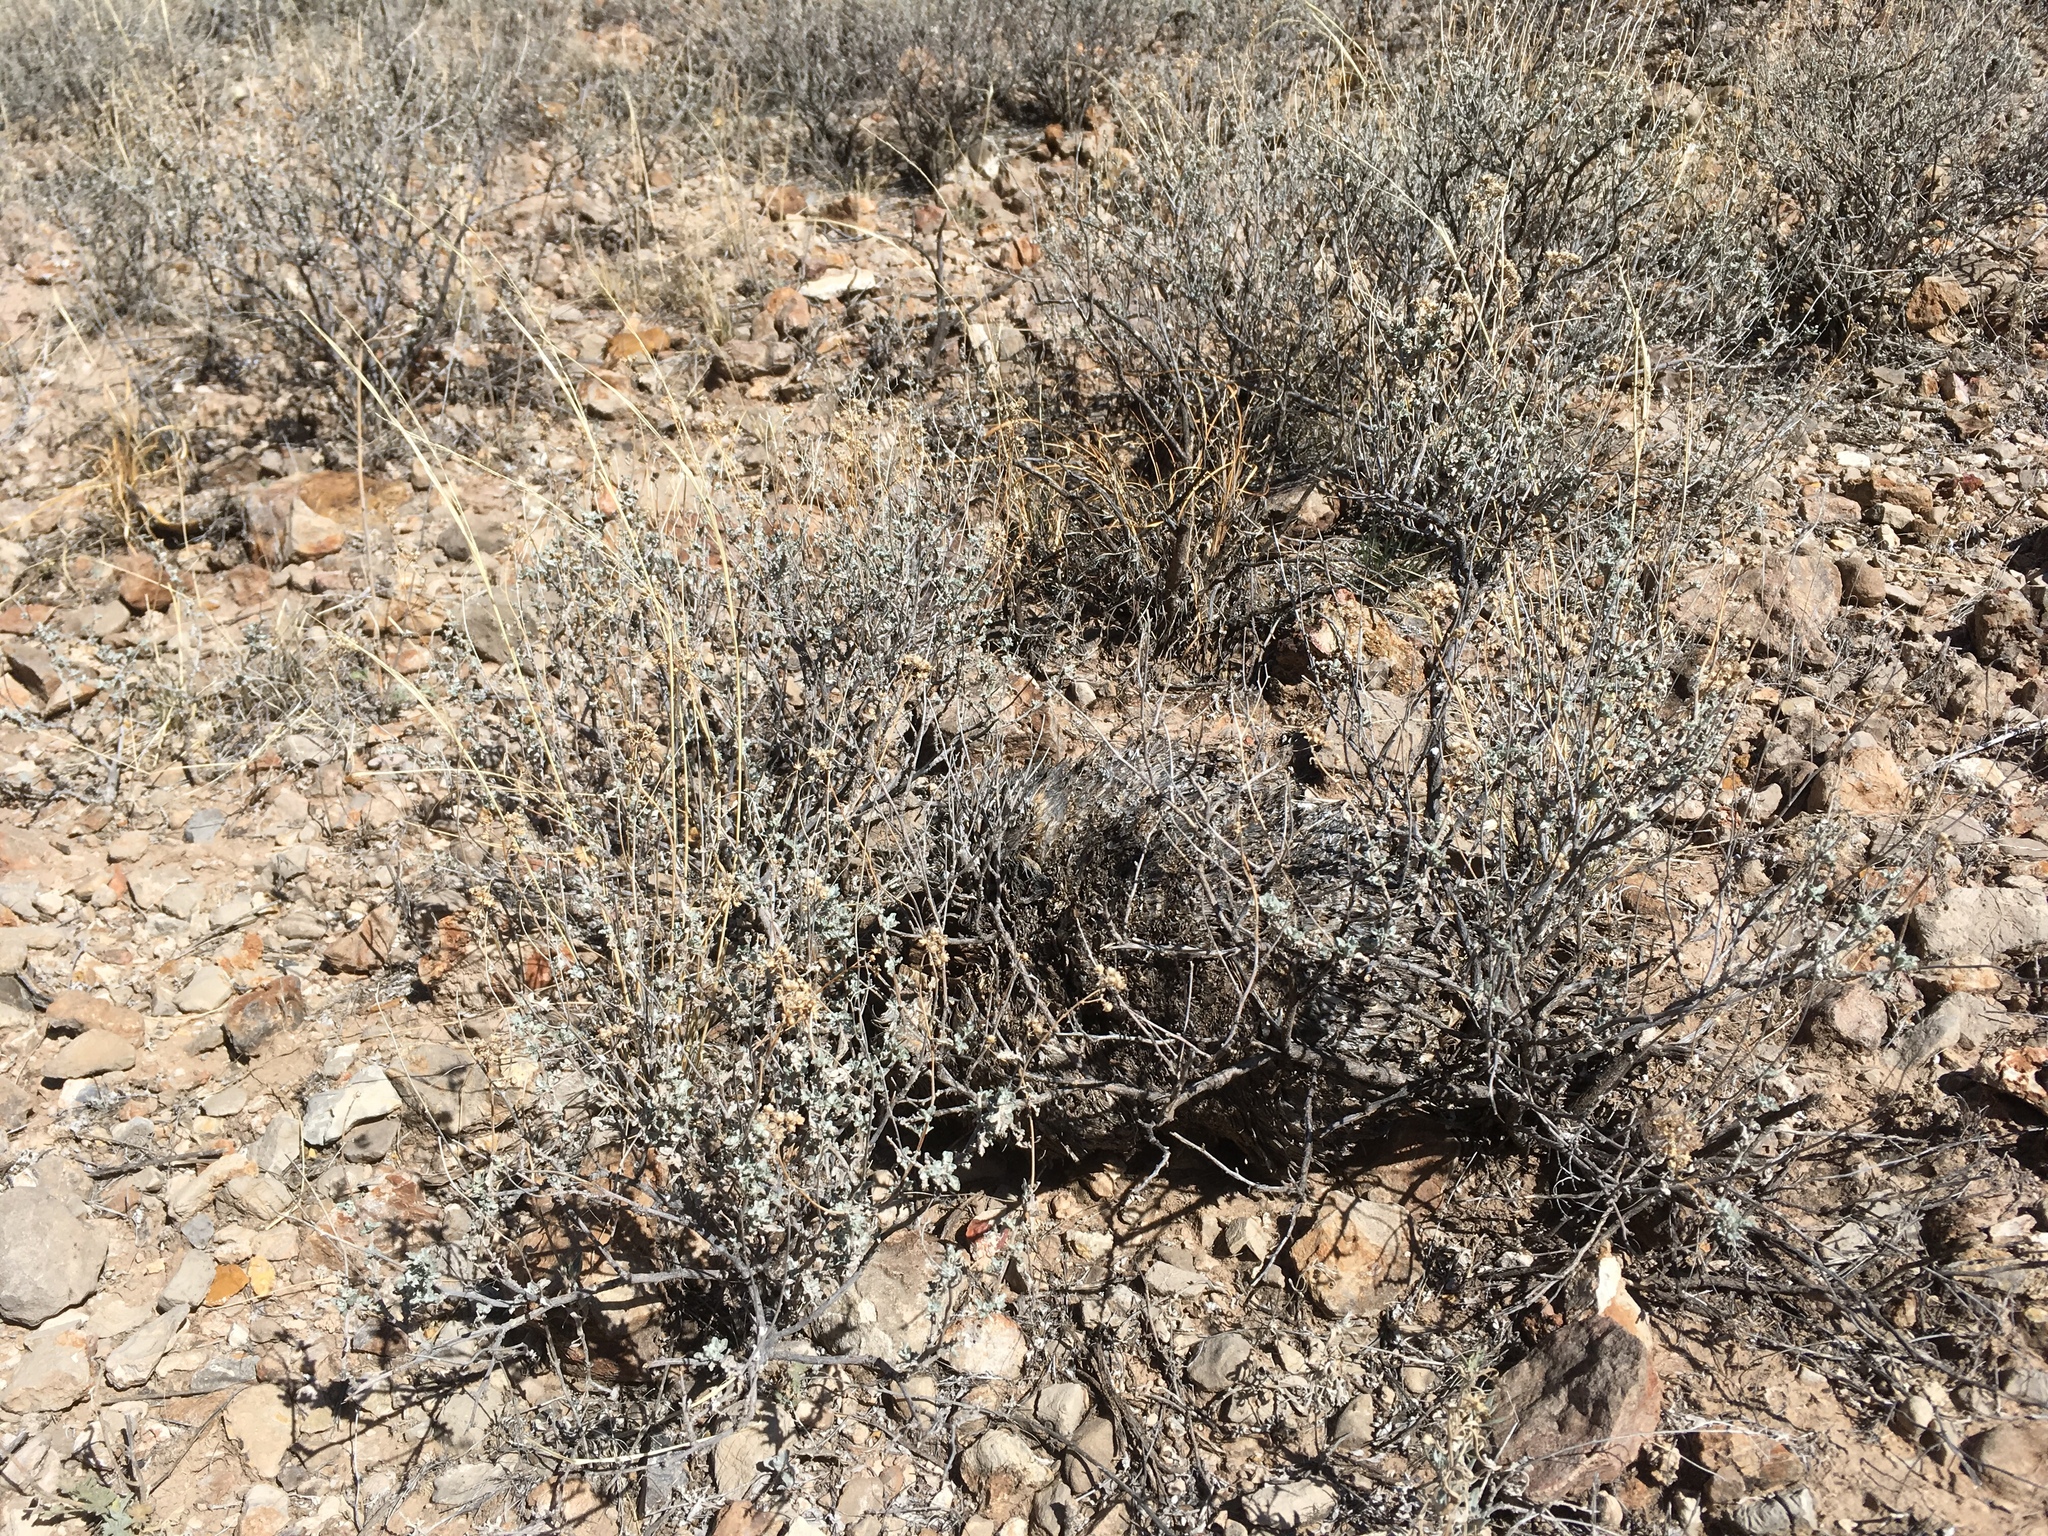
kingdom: Plantae
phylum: Tracheophyta
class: Magnoliopsida
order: Asterales
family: Asteraceae
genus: Parthenium
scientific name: Parthenium incanum
